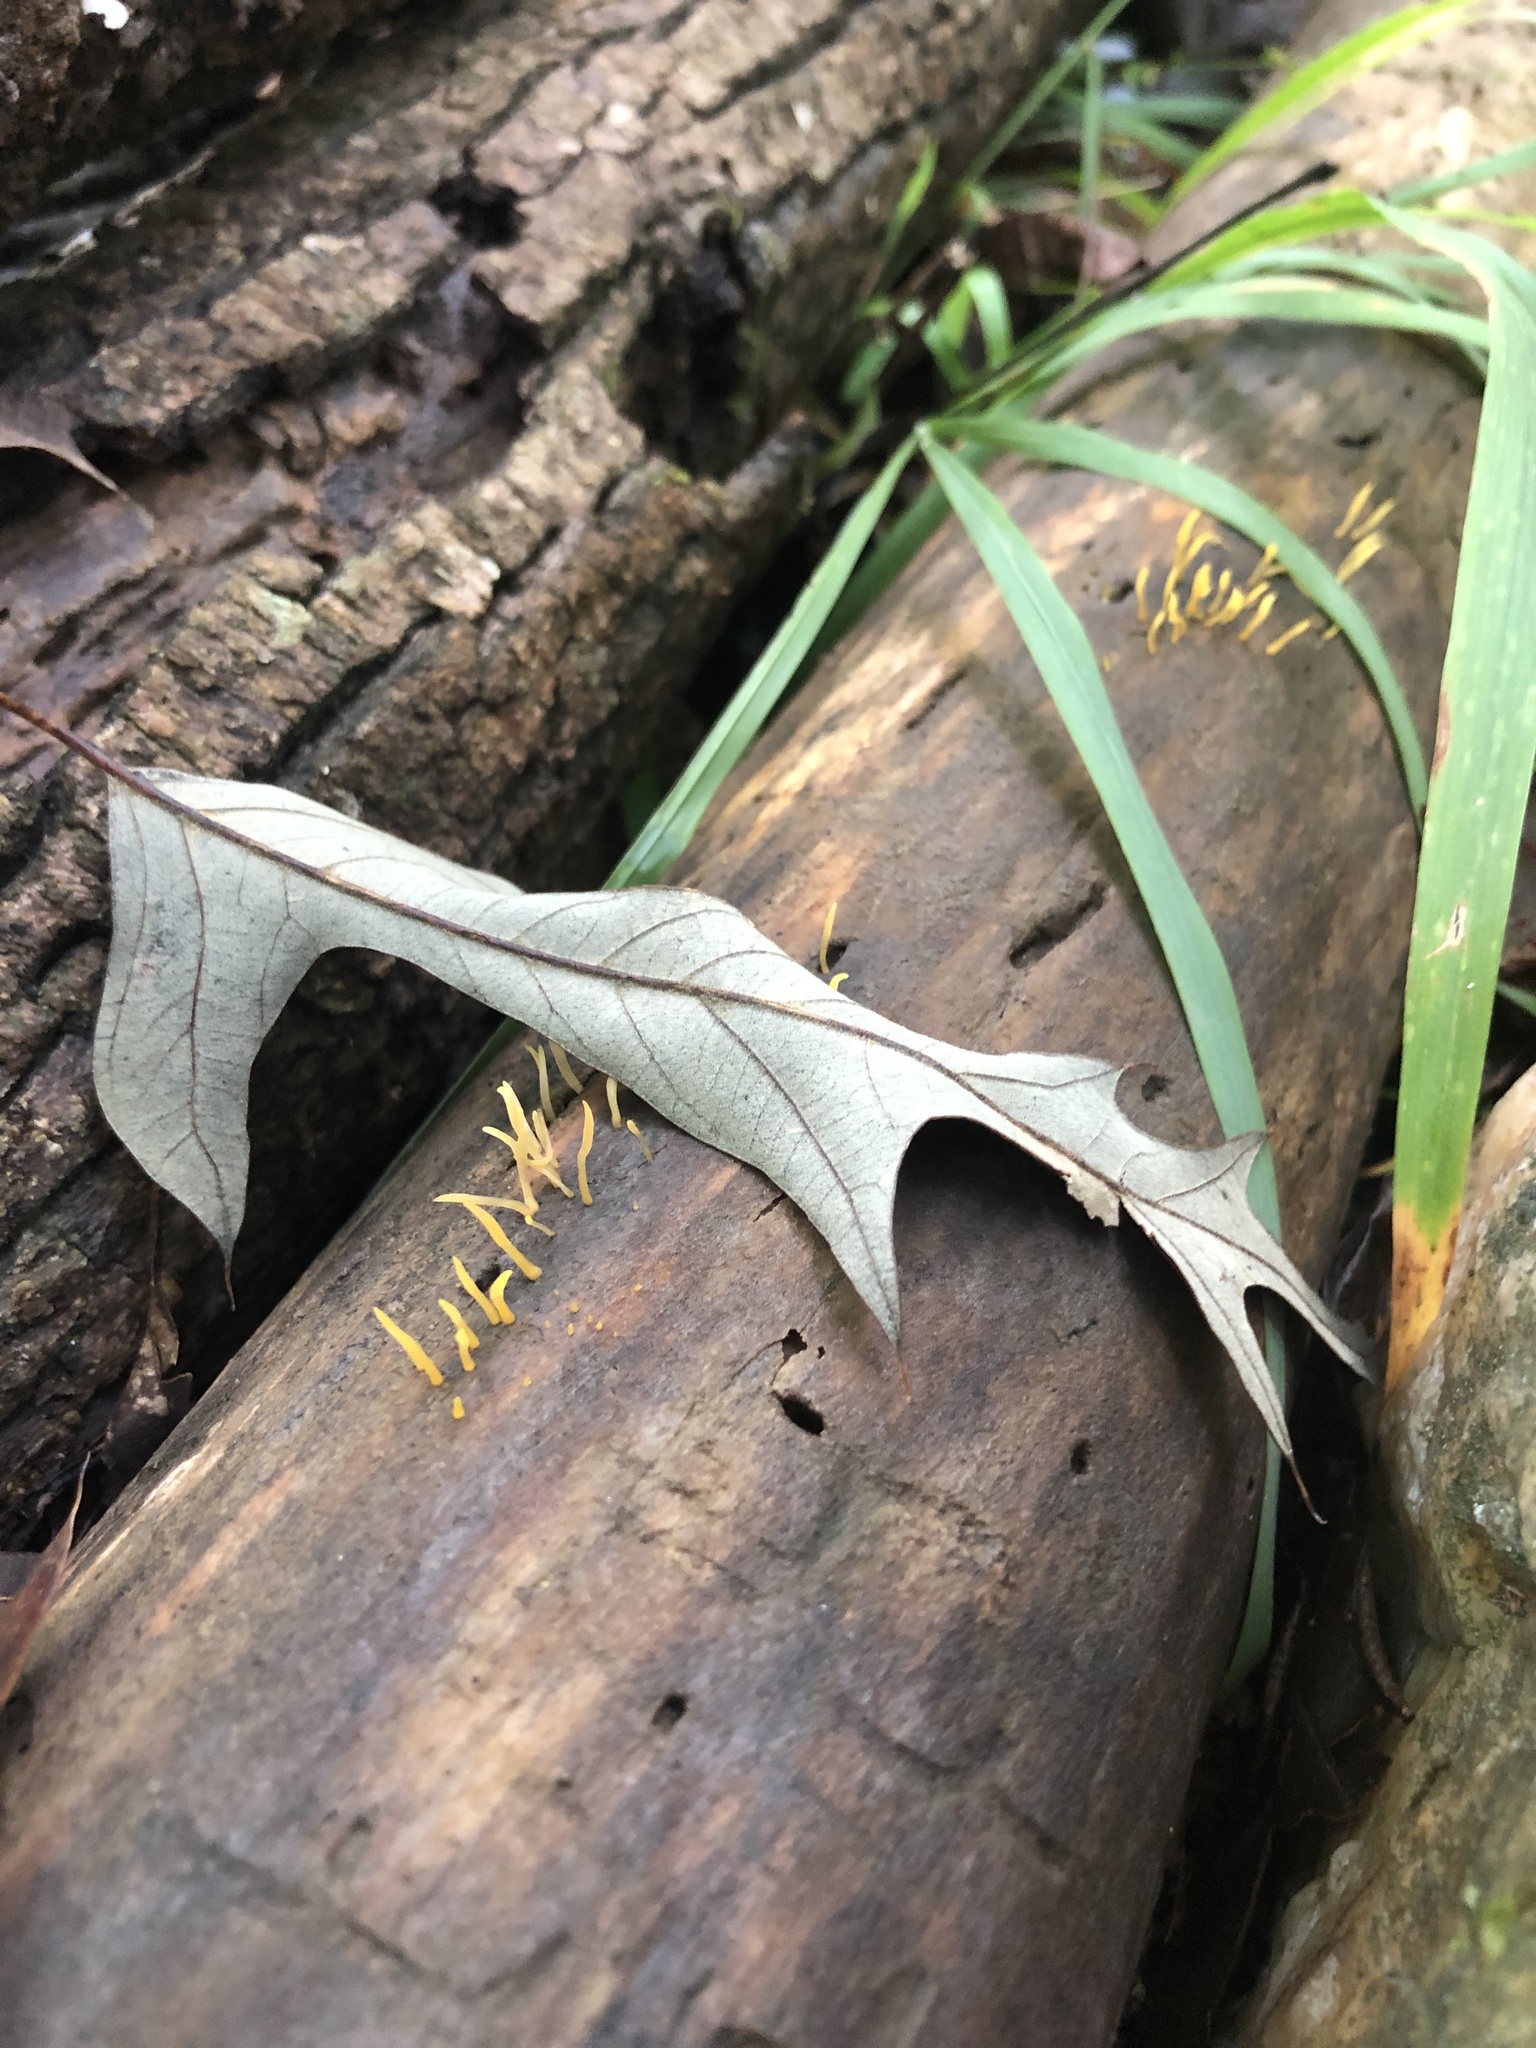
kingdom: Fungi
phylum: Basidiomycota
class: Dacrymycetes
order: Dacrymycetales
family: Dacrymycetaceae
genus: Calocera
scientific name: Calocera cornea
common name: Small stagshorn
